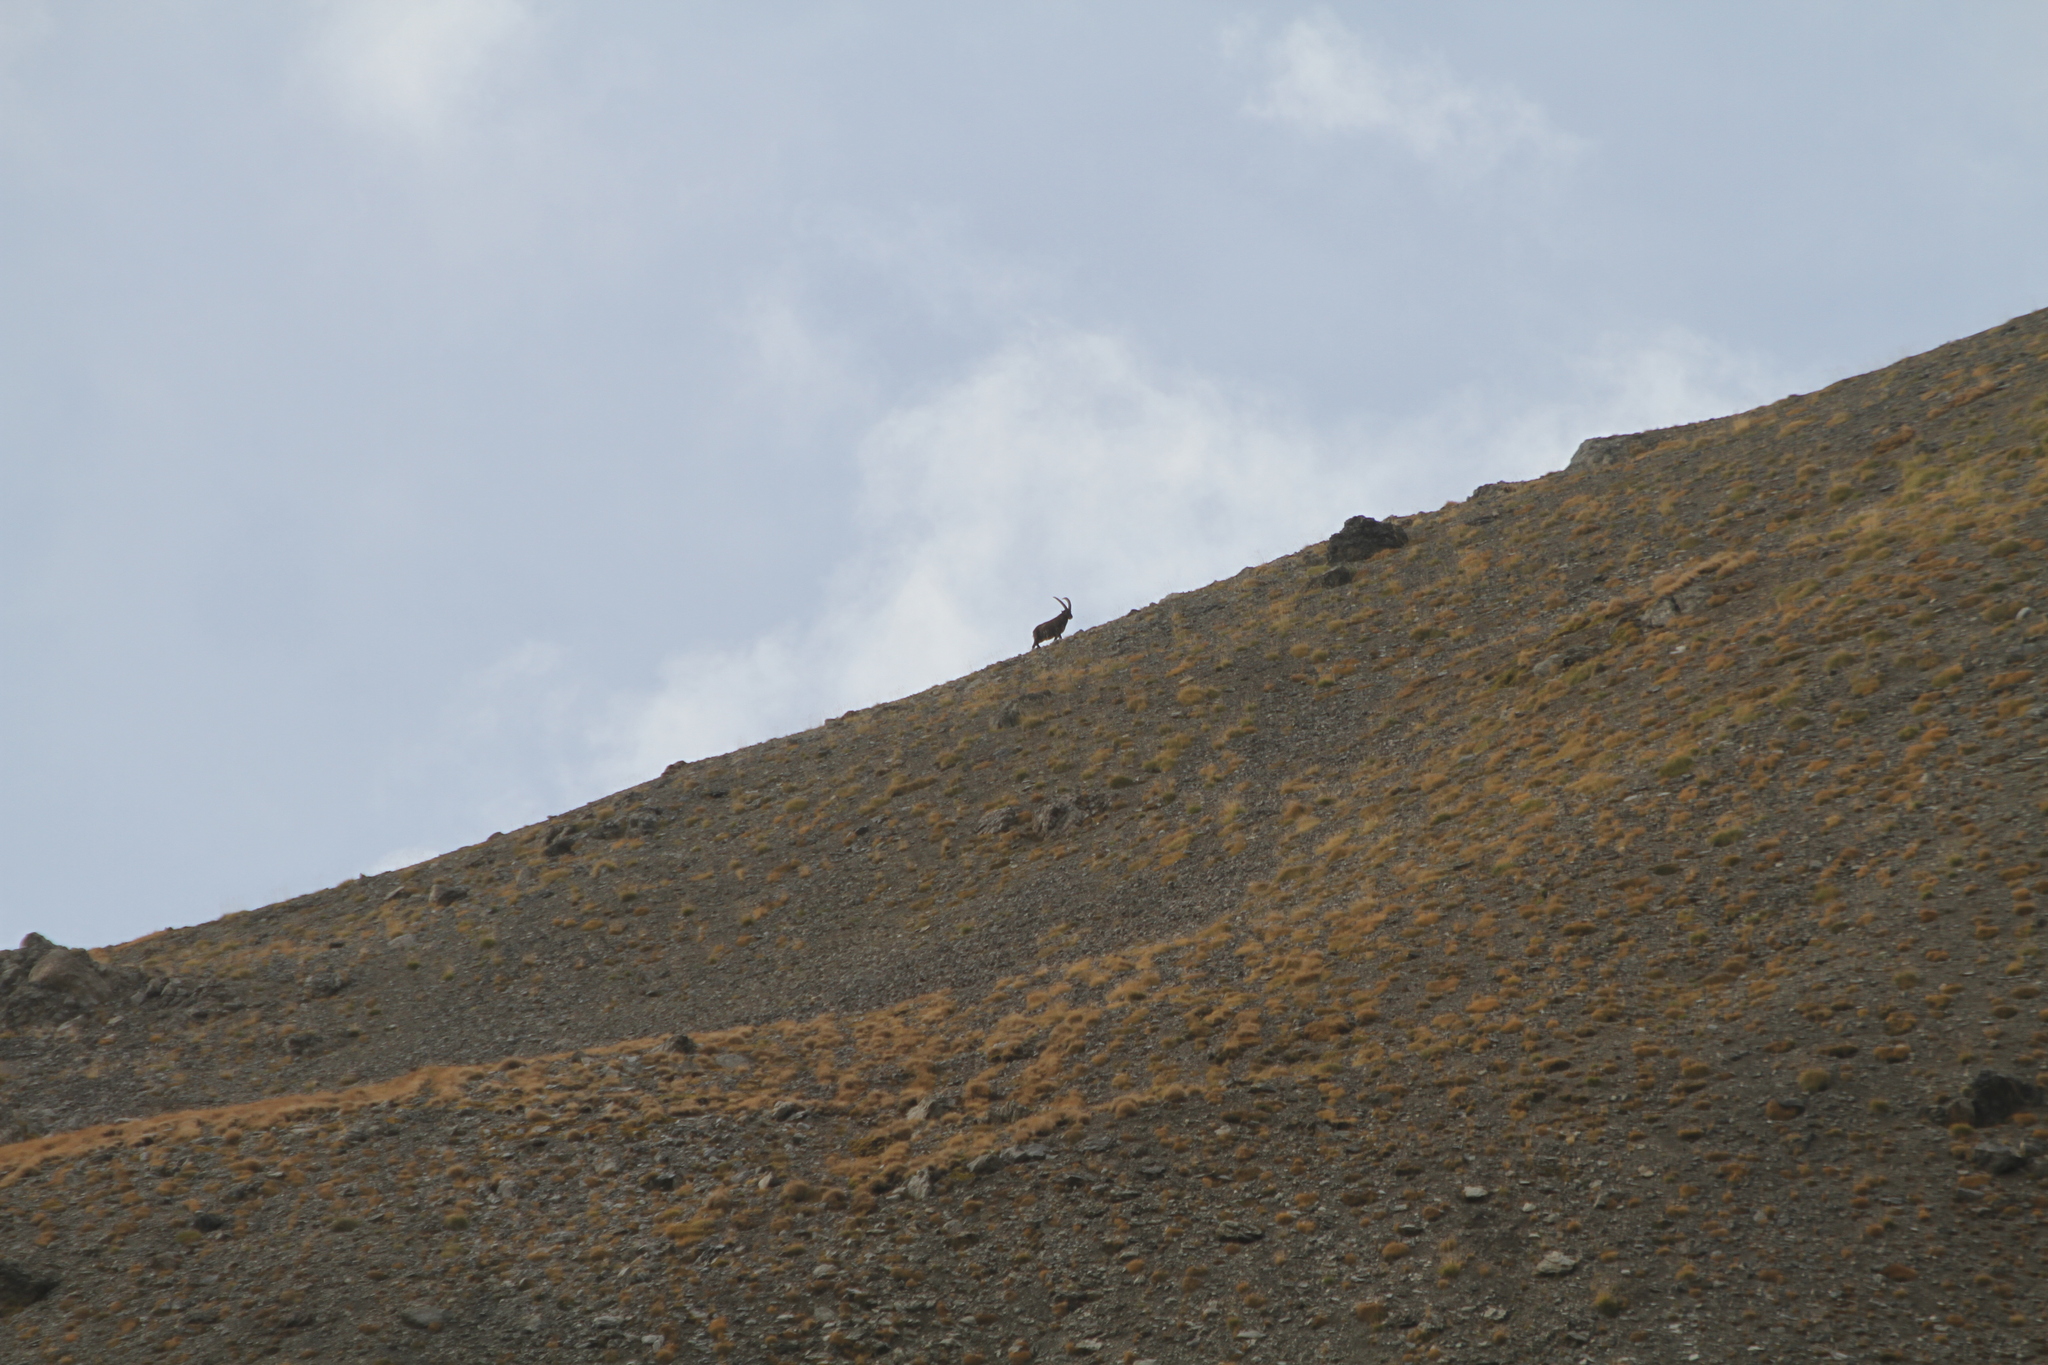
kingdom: Animalia
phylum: Chordata
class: Mammalia
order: Artiodactyla
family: Bovidae
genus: Capra
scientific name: Capra ibex
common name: Alpine ibex
